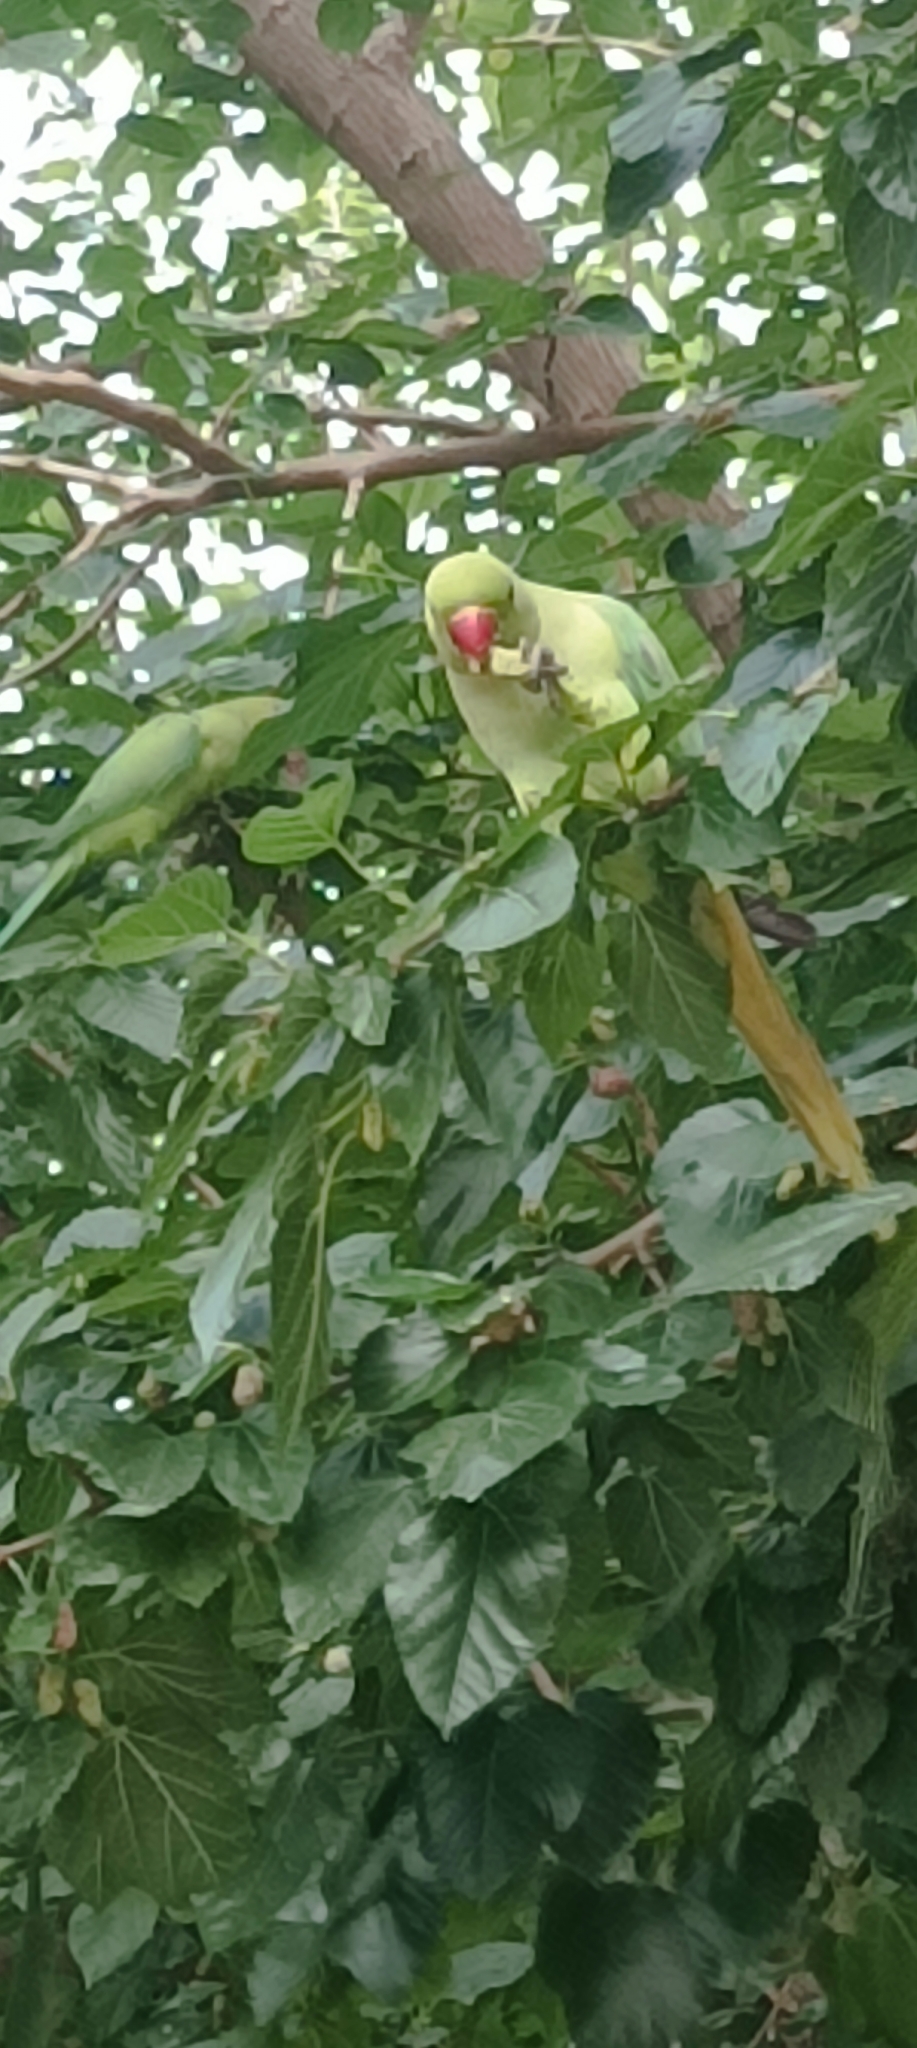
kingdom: Animalia
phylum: Chordata
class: Aves
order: Psittaciformes
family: Psittacidae
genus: Psittacula
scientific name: Psittacula krameri
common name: Rose-ringed parakeet
